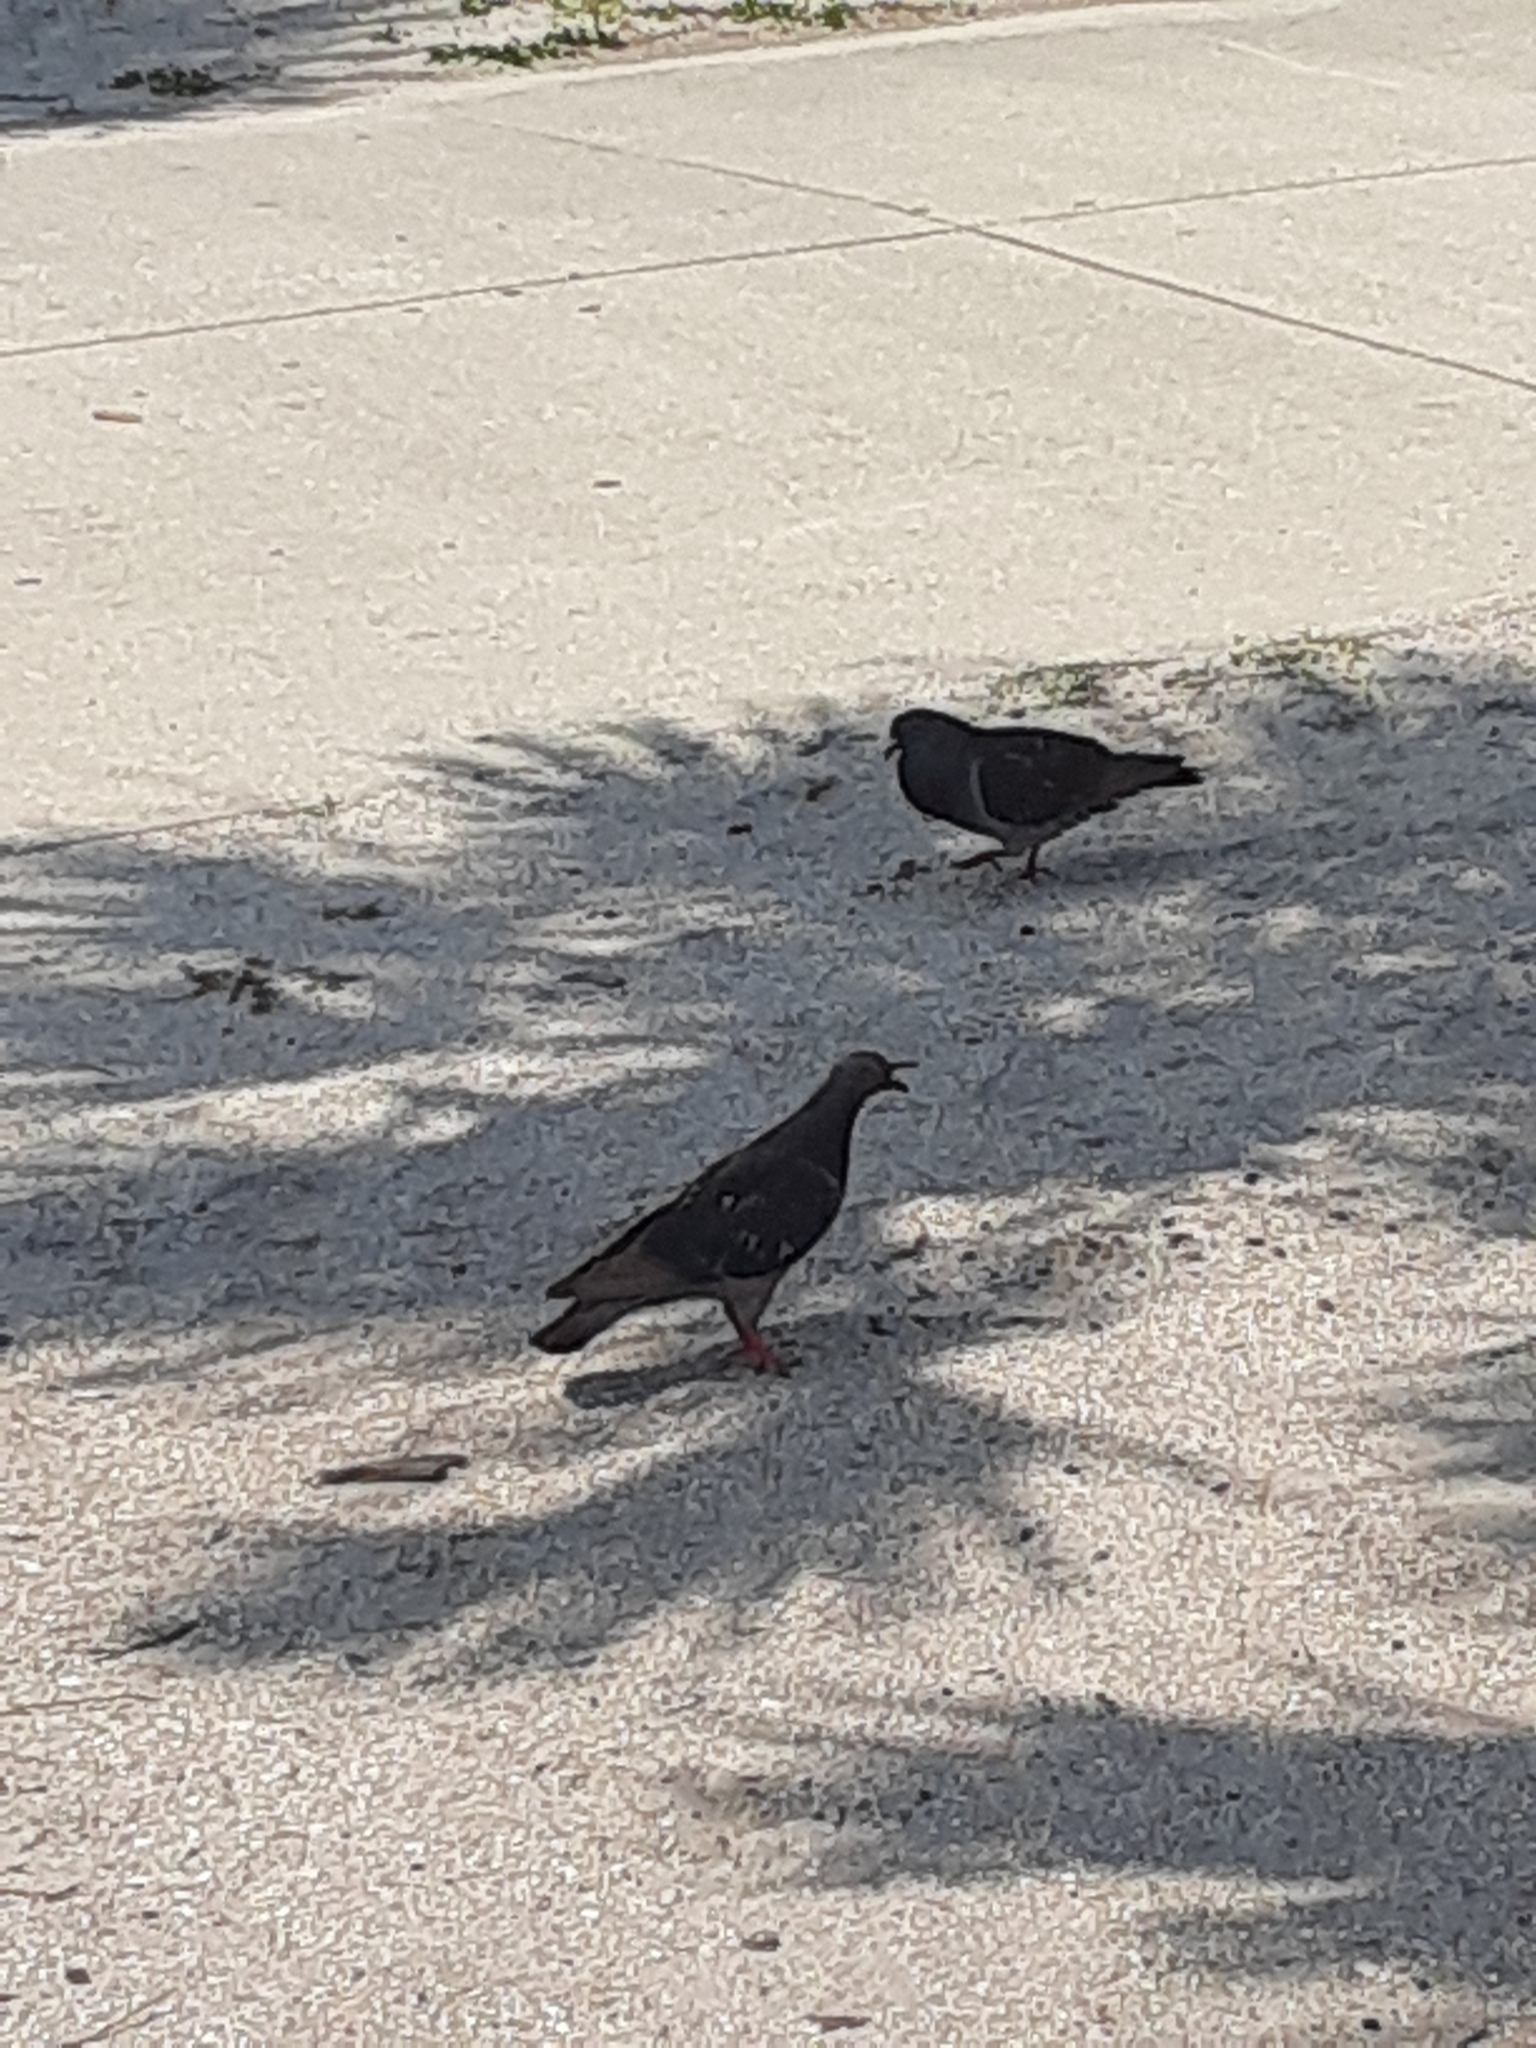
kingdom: Animalia
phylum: Chordata
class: Aves
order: Columbiformes
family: Columbidae
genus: Columba
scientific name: Columba livia
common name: Rock pigeon
